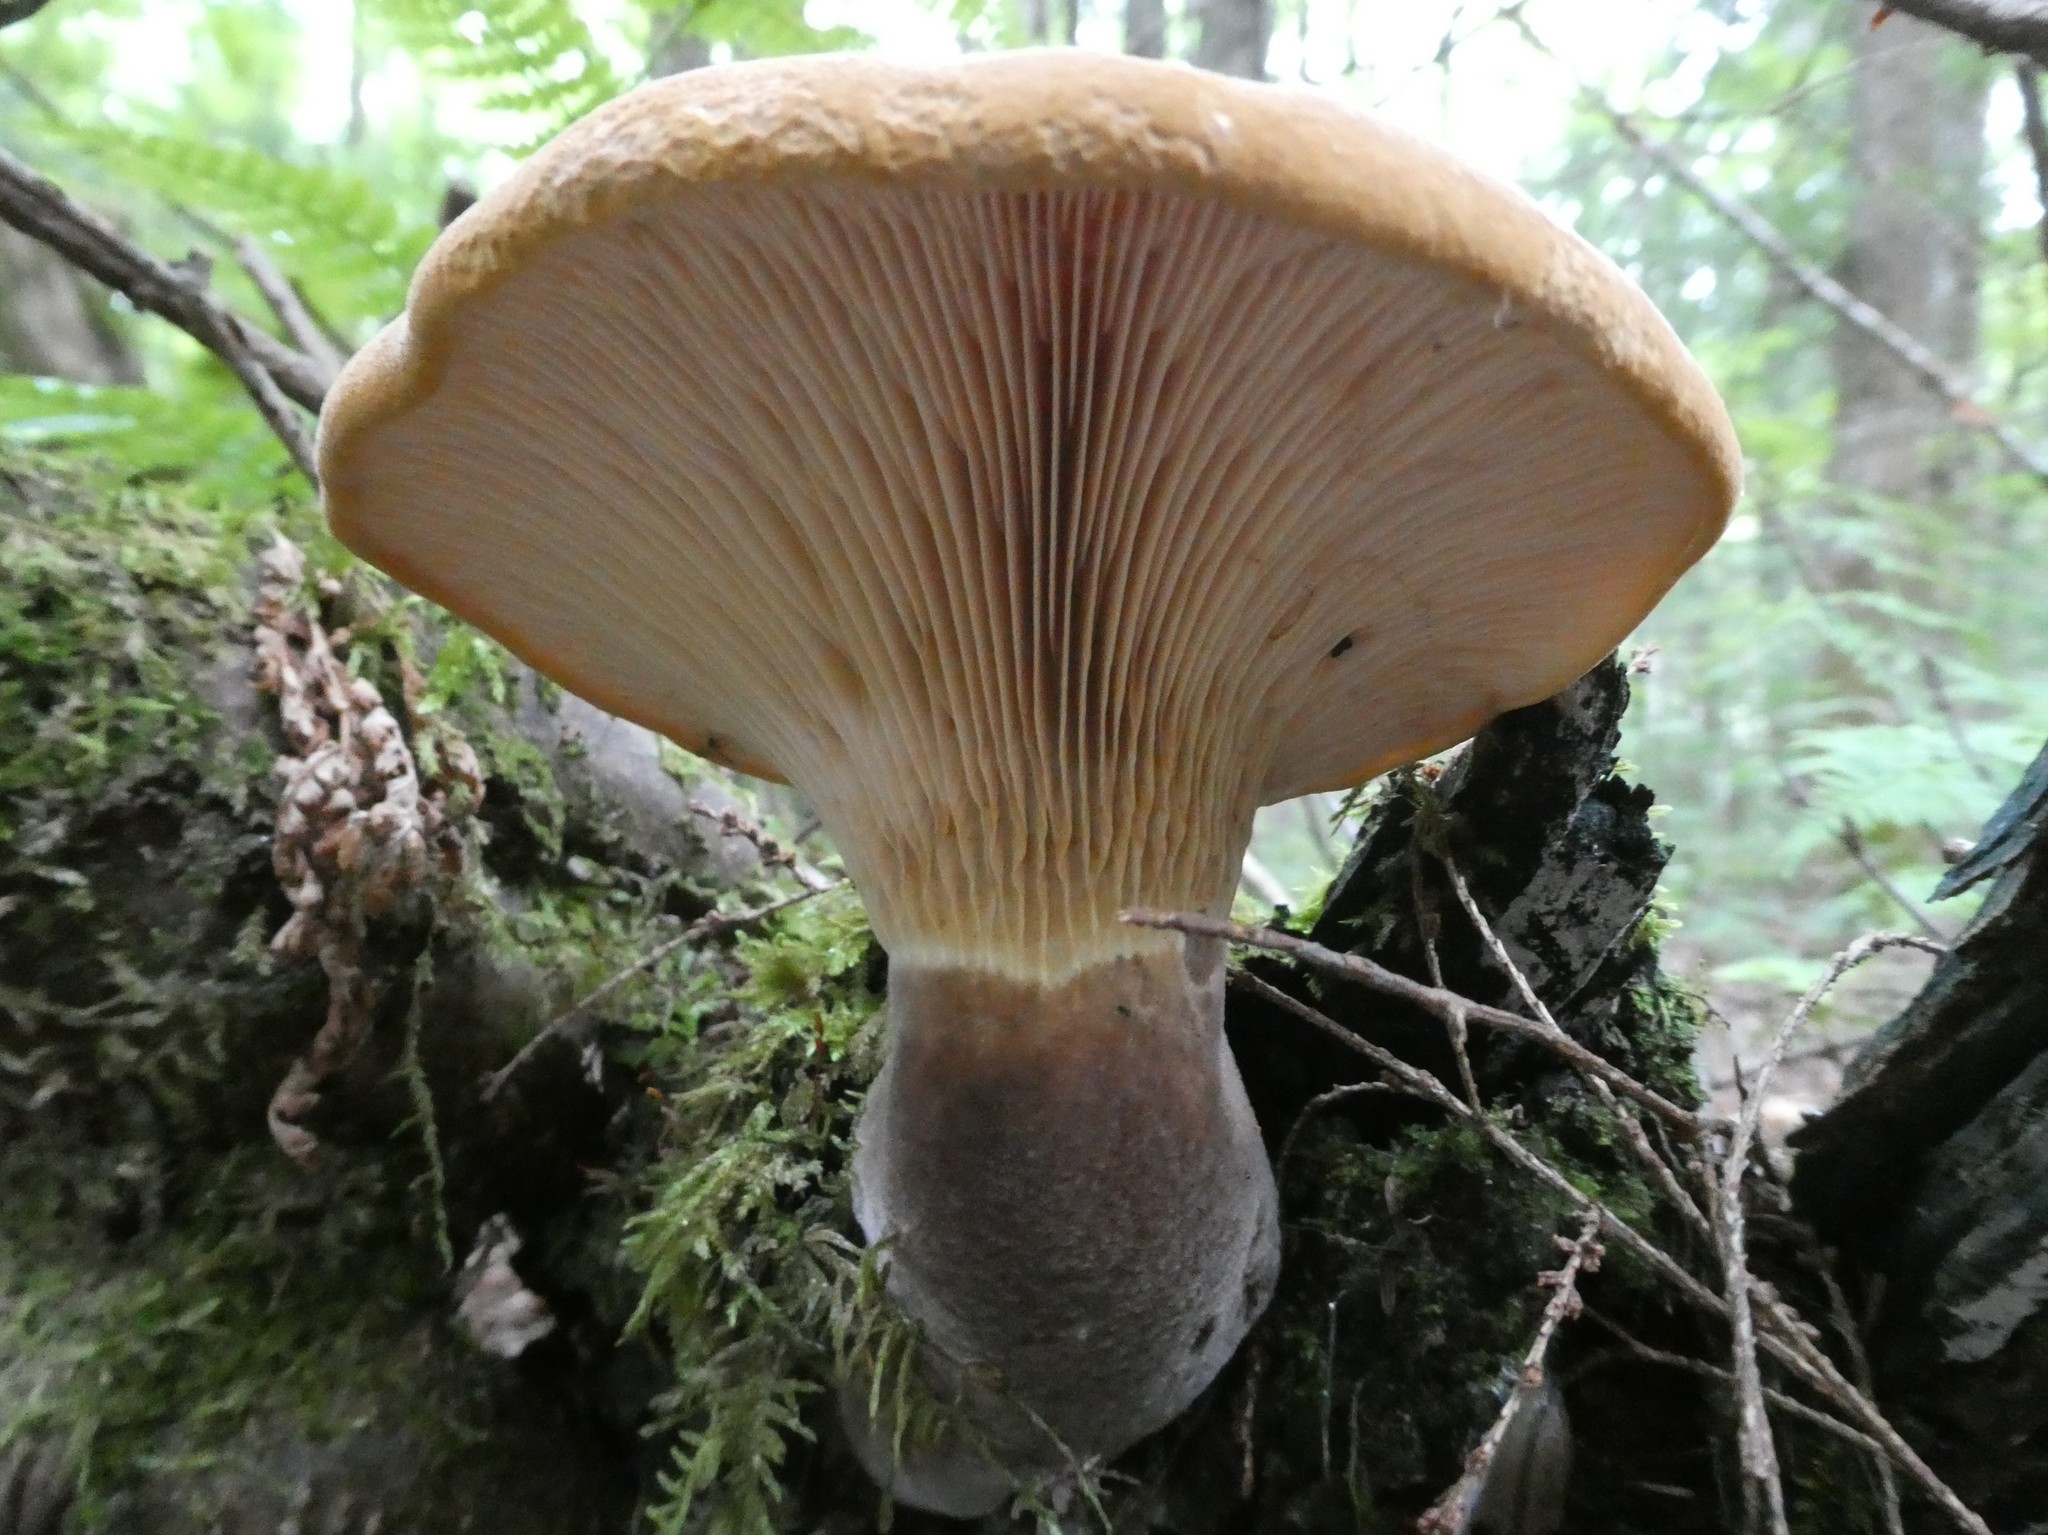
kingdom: Fungi
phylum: Basidiomycota
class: Agaricomycetes
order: Boletales
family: Tapinellaceae
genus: Tapinella
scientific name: Tapinella atrotomentosa
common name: Velvet rollrim
